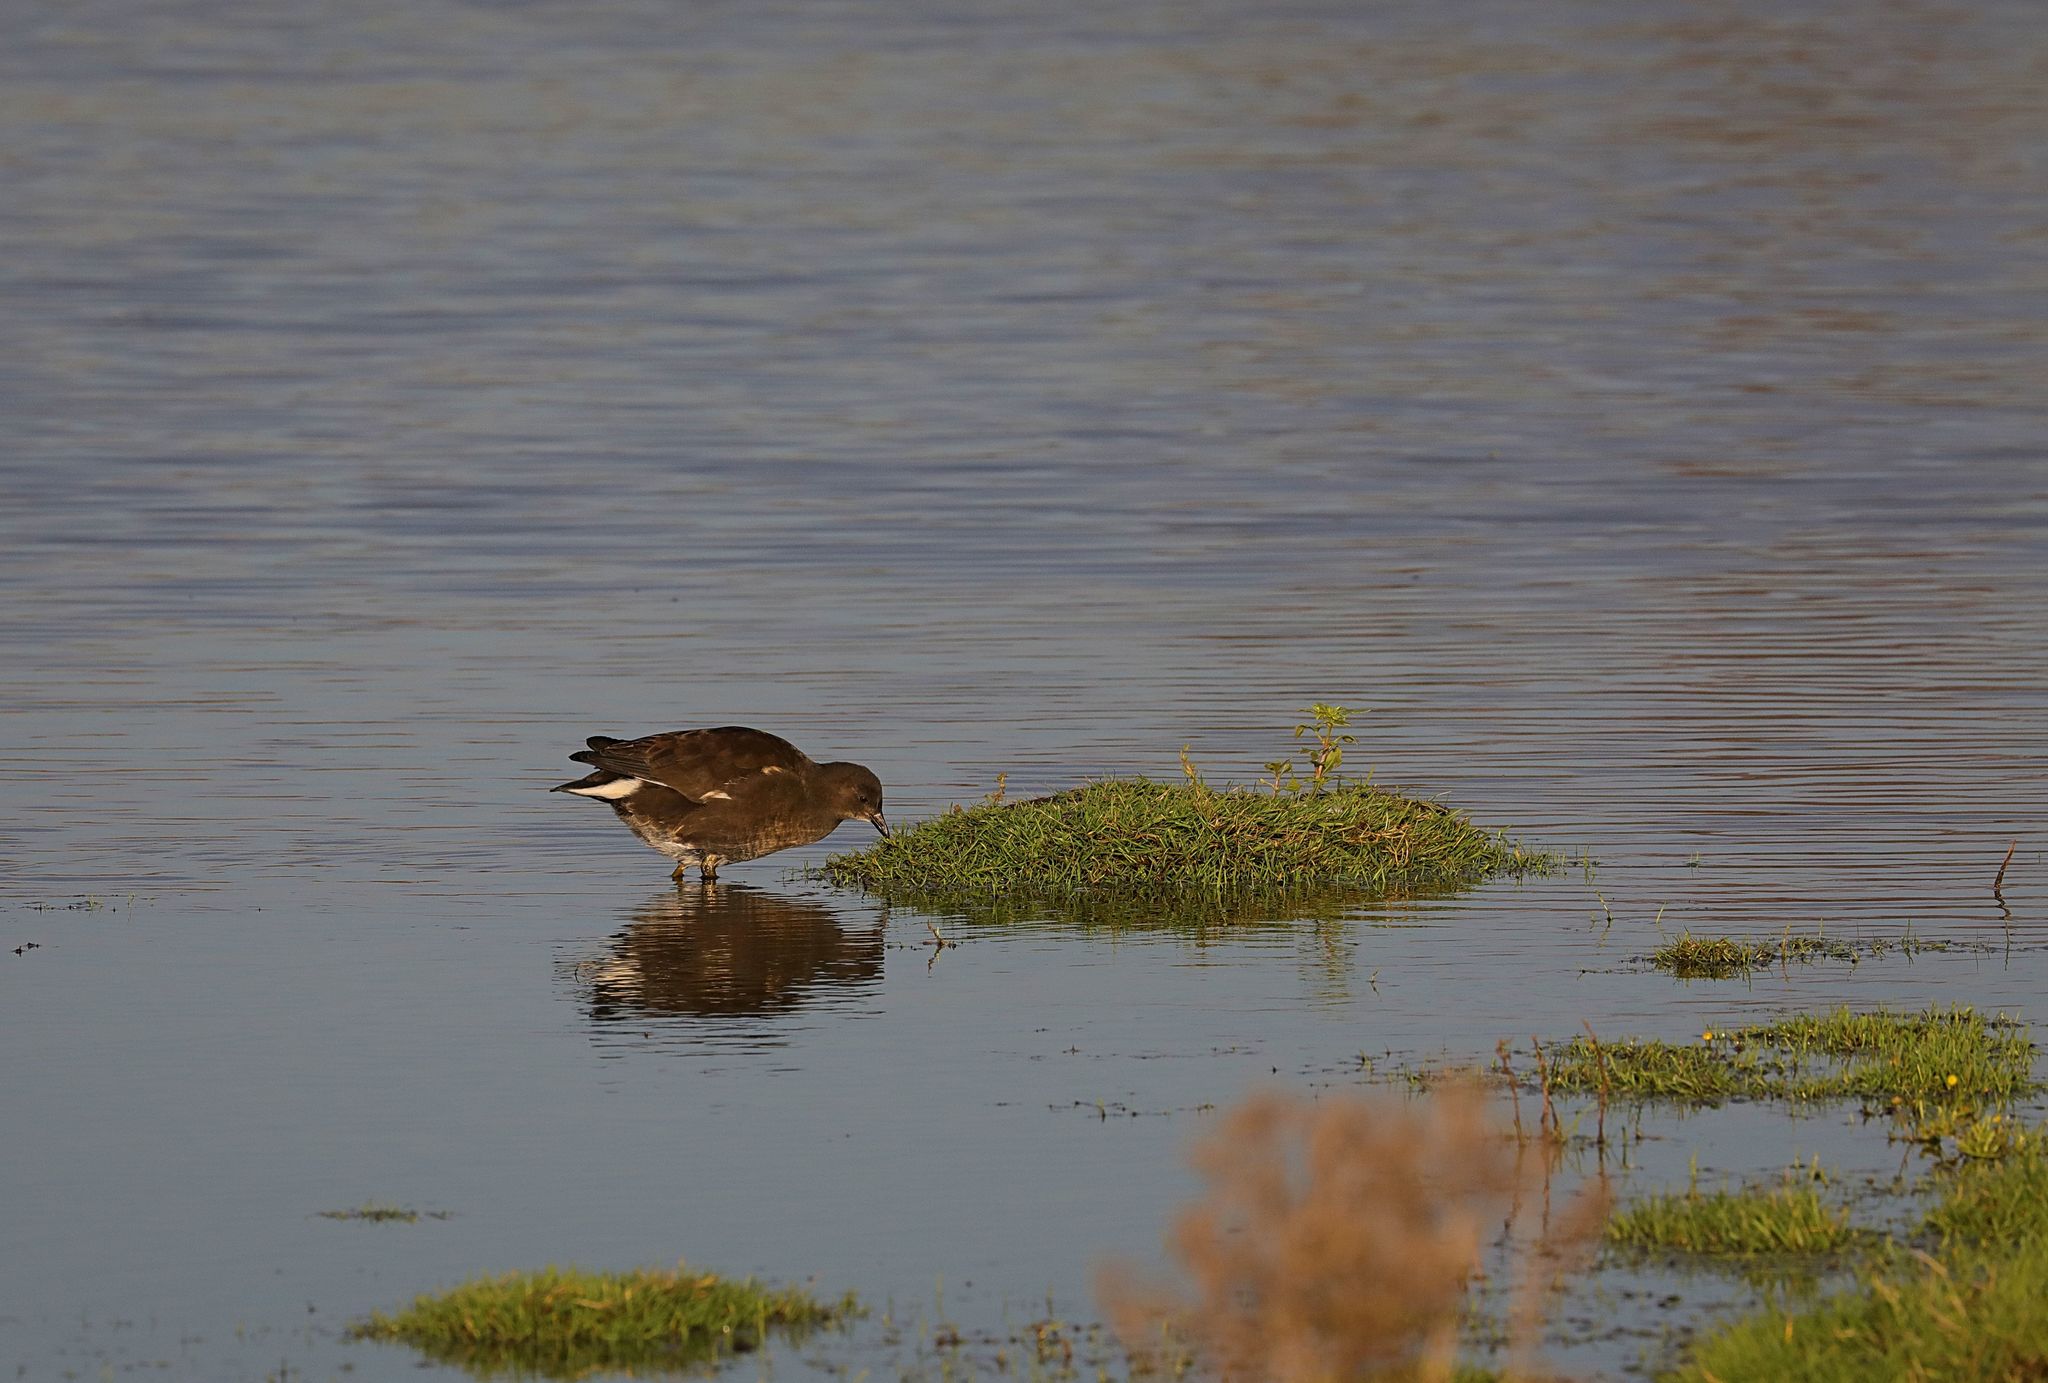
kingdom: Animalia
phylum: Chordata
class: Aves
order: Gruiformes
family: Rallidae
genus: Gallinula
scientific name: Gallinula chloropus
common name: Common moorhen
